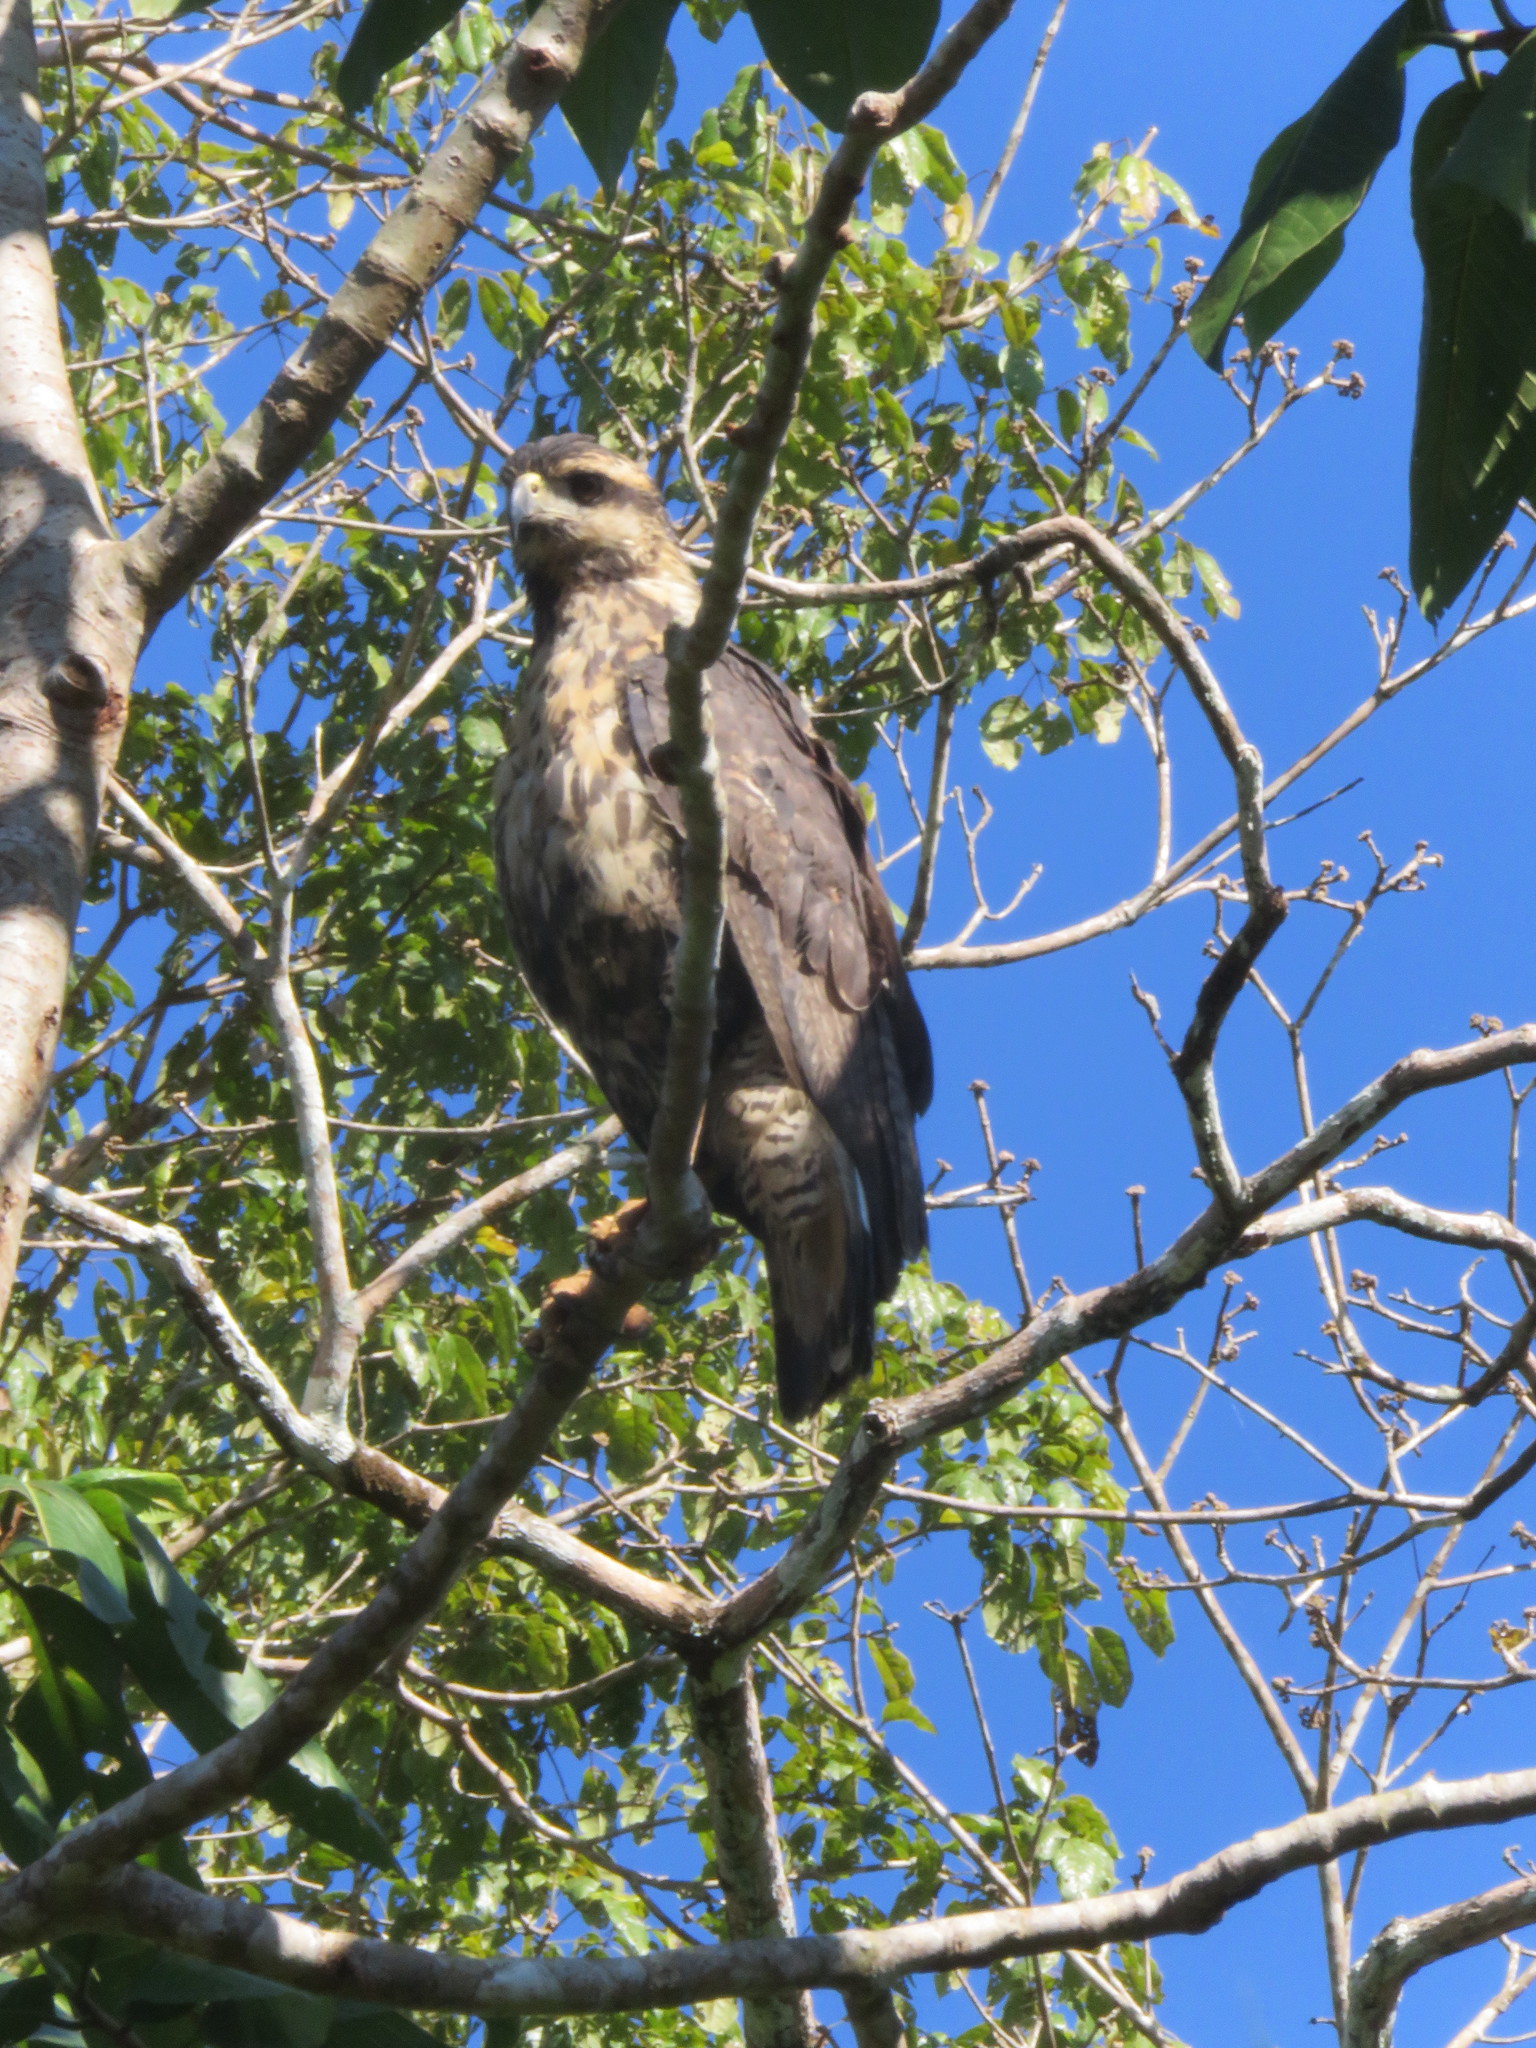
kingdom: Animalia
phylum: Chordata
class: Aves
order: Accipitriformes
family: Accipitridae
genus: Buteogallus
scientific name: Buteogallus urubitinga
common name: Great black hawk
